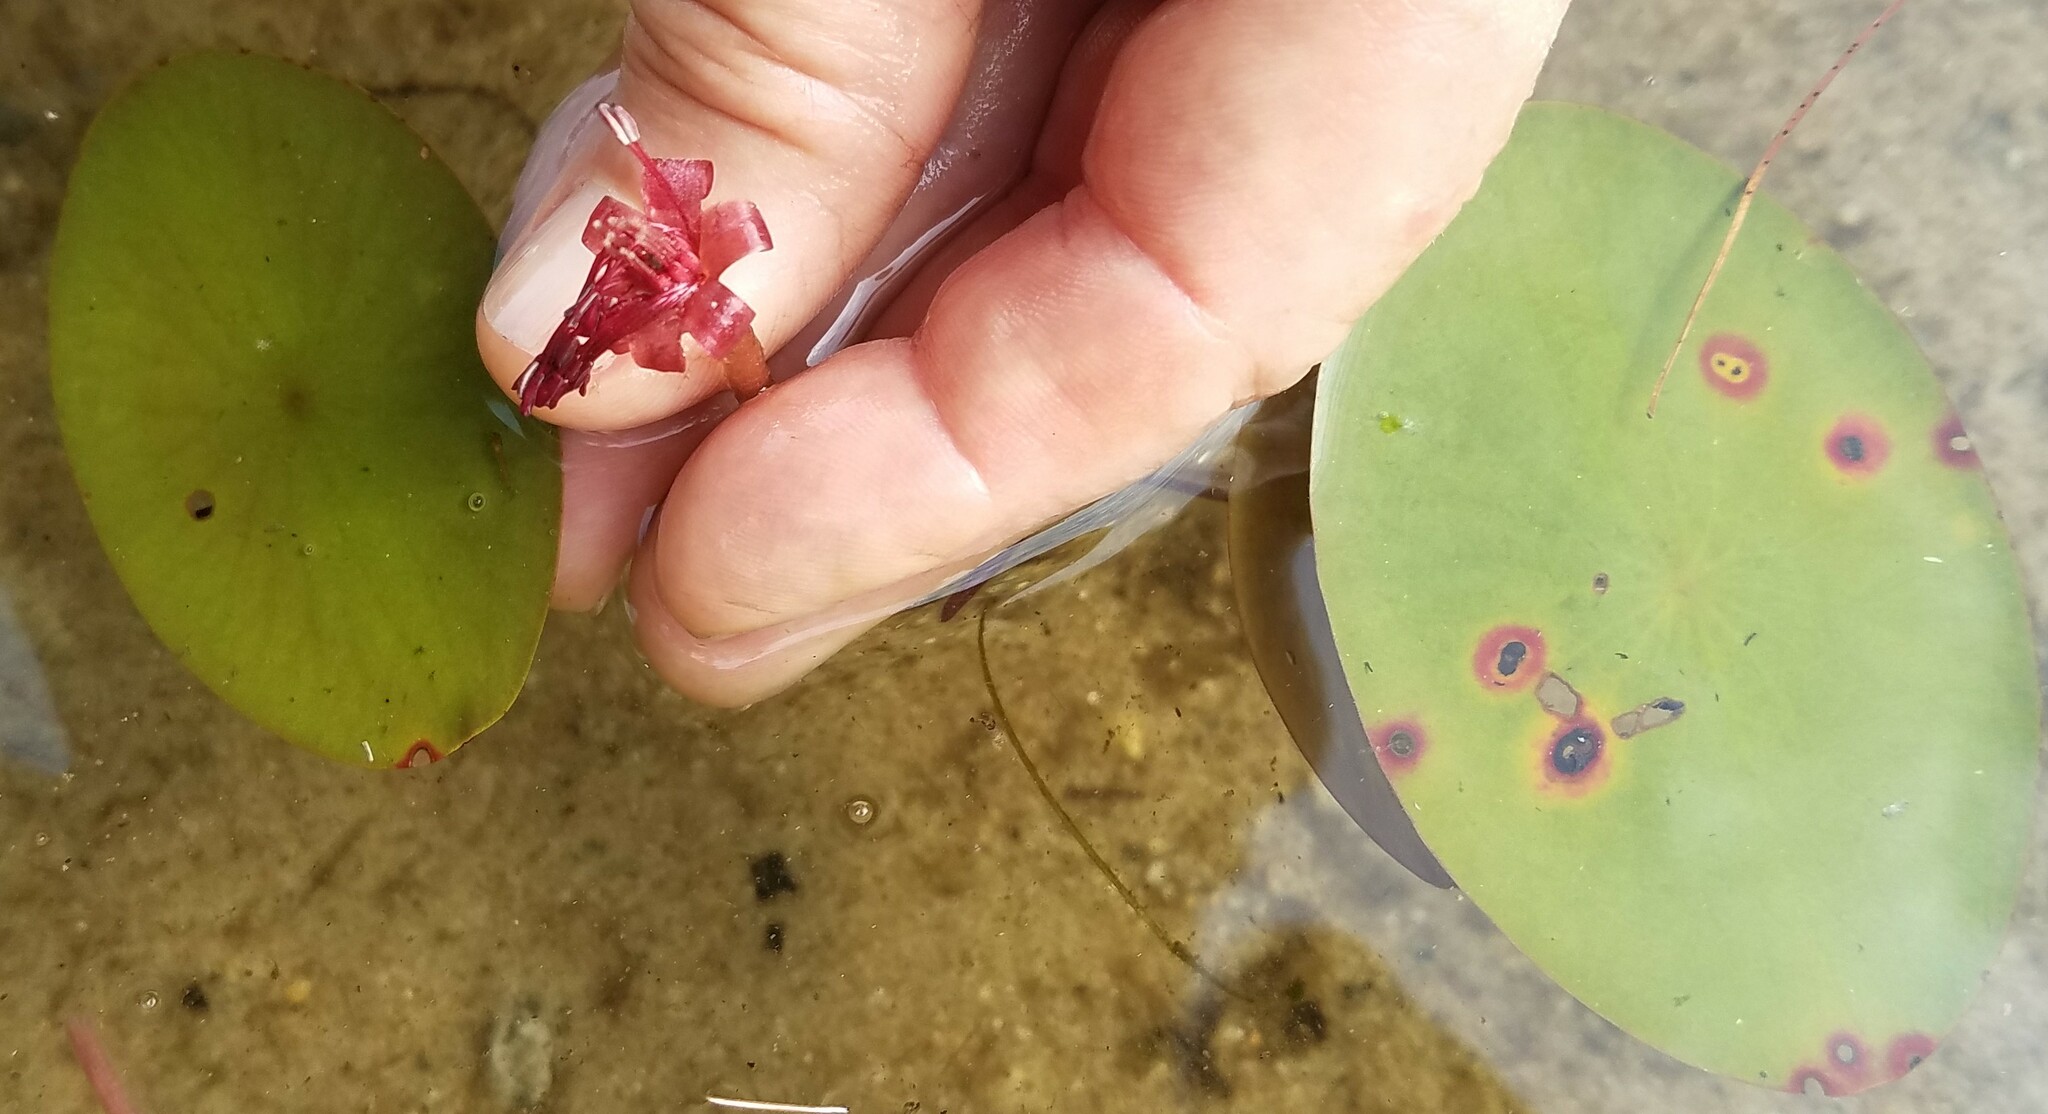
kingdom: Plantae
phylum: Tracheophyta
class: Magnoliopsida
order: Nymphaeales
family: Cabombaceae
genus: Brasenia
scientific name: Brasenia schreberi
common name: Water-shield
